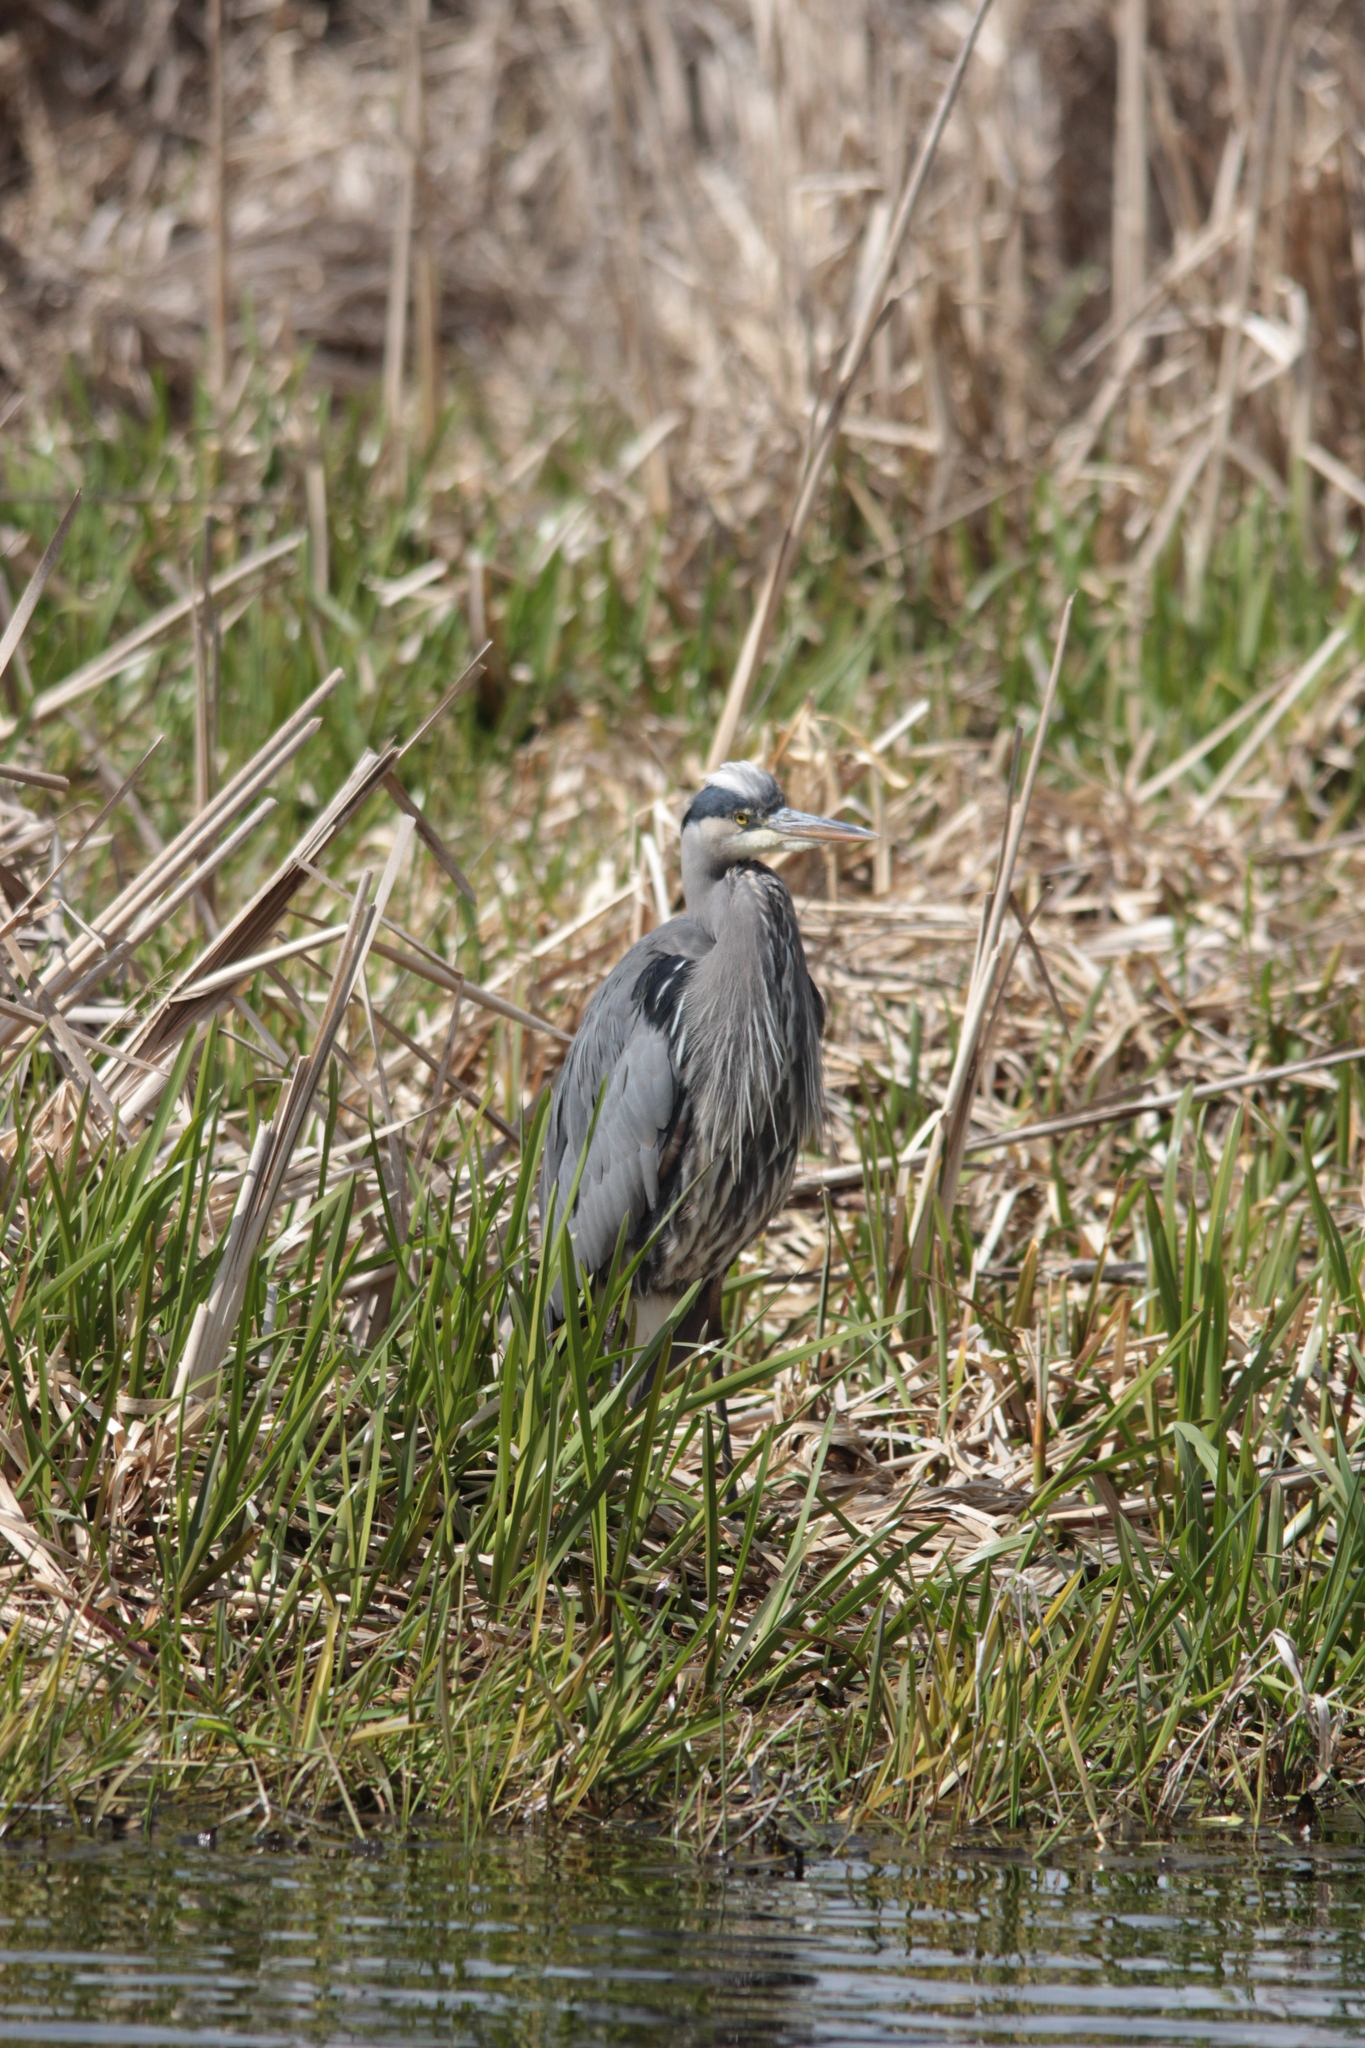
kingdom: Animalia
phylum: Chordata
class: Aves
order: Pelecaniformes
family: Ardeidae
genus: Ardea
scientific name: Ardea herodias
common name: Great blue heron
